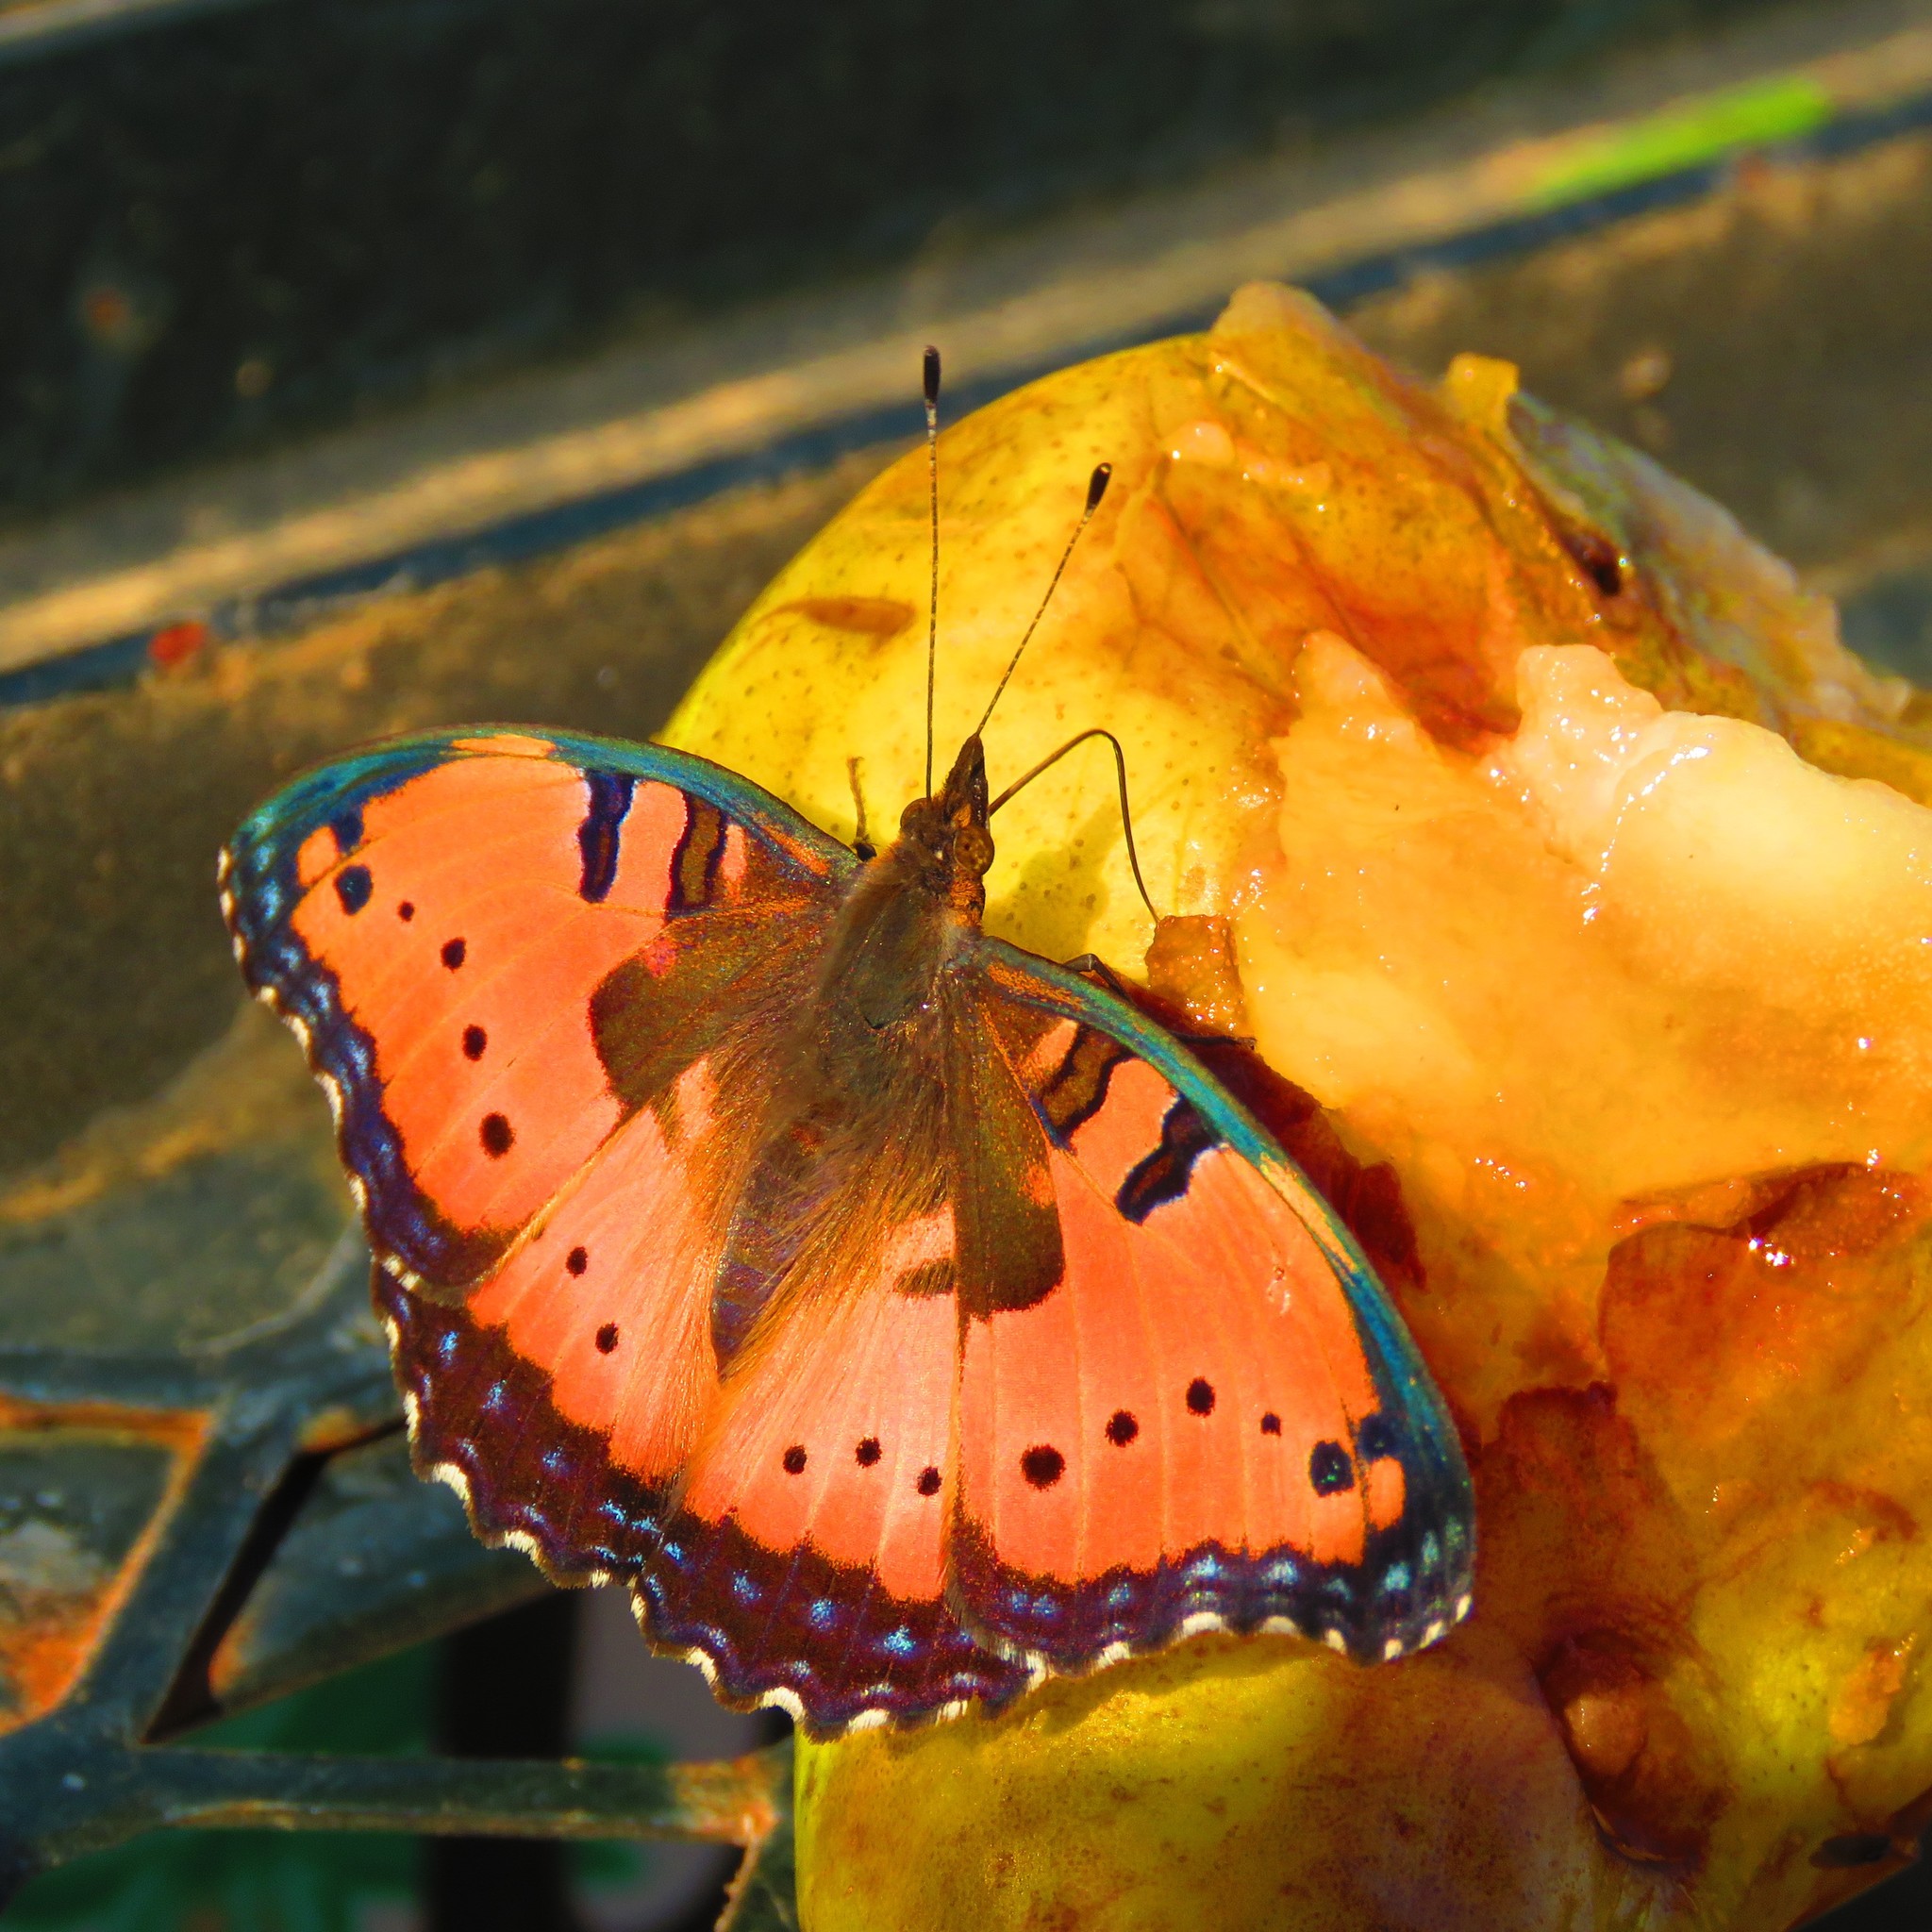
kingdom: Animalia
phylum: Arthropoda
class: Insecta
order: Lepidoptera
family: Nymphalidae
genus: Precis
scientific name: Precis octavia
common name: Gaudy commodore
